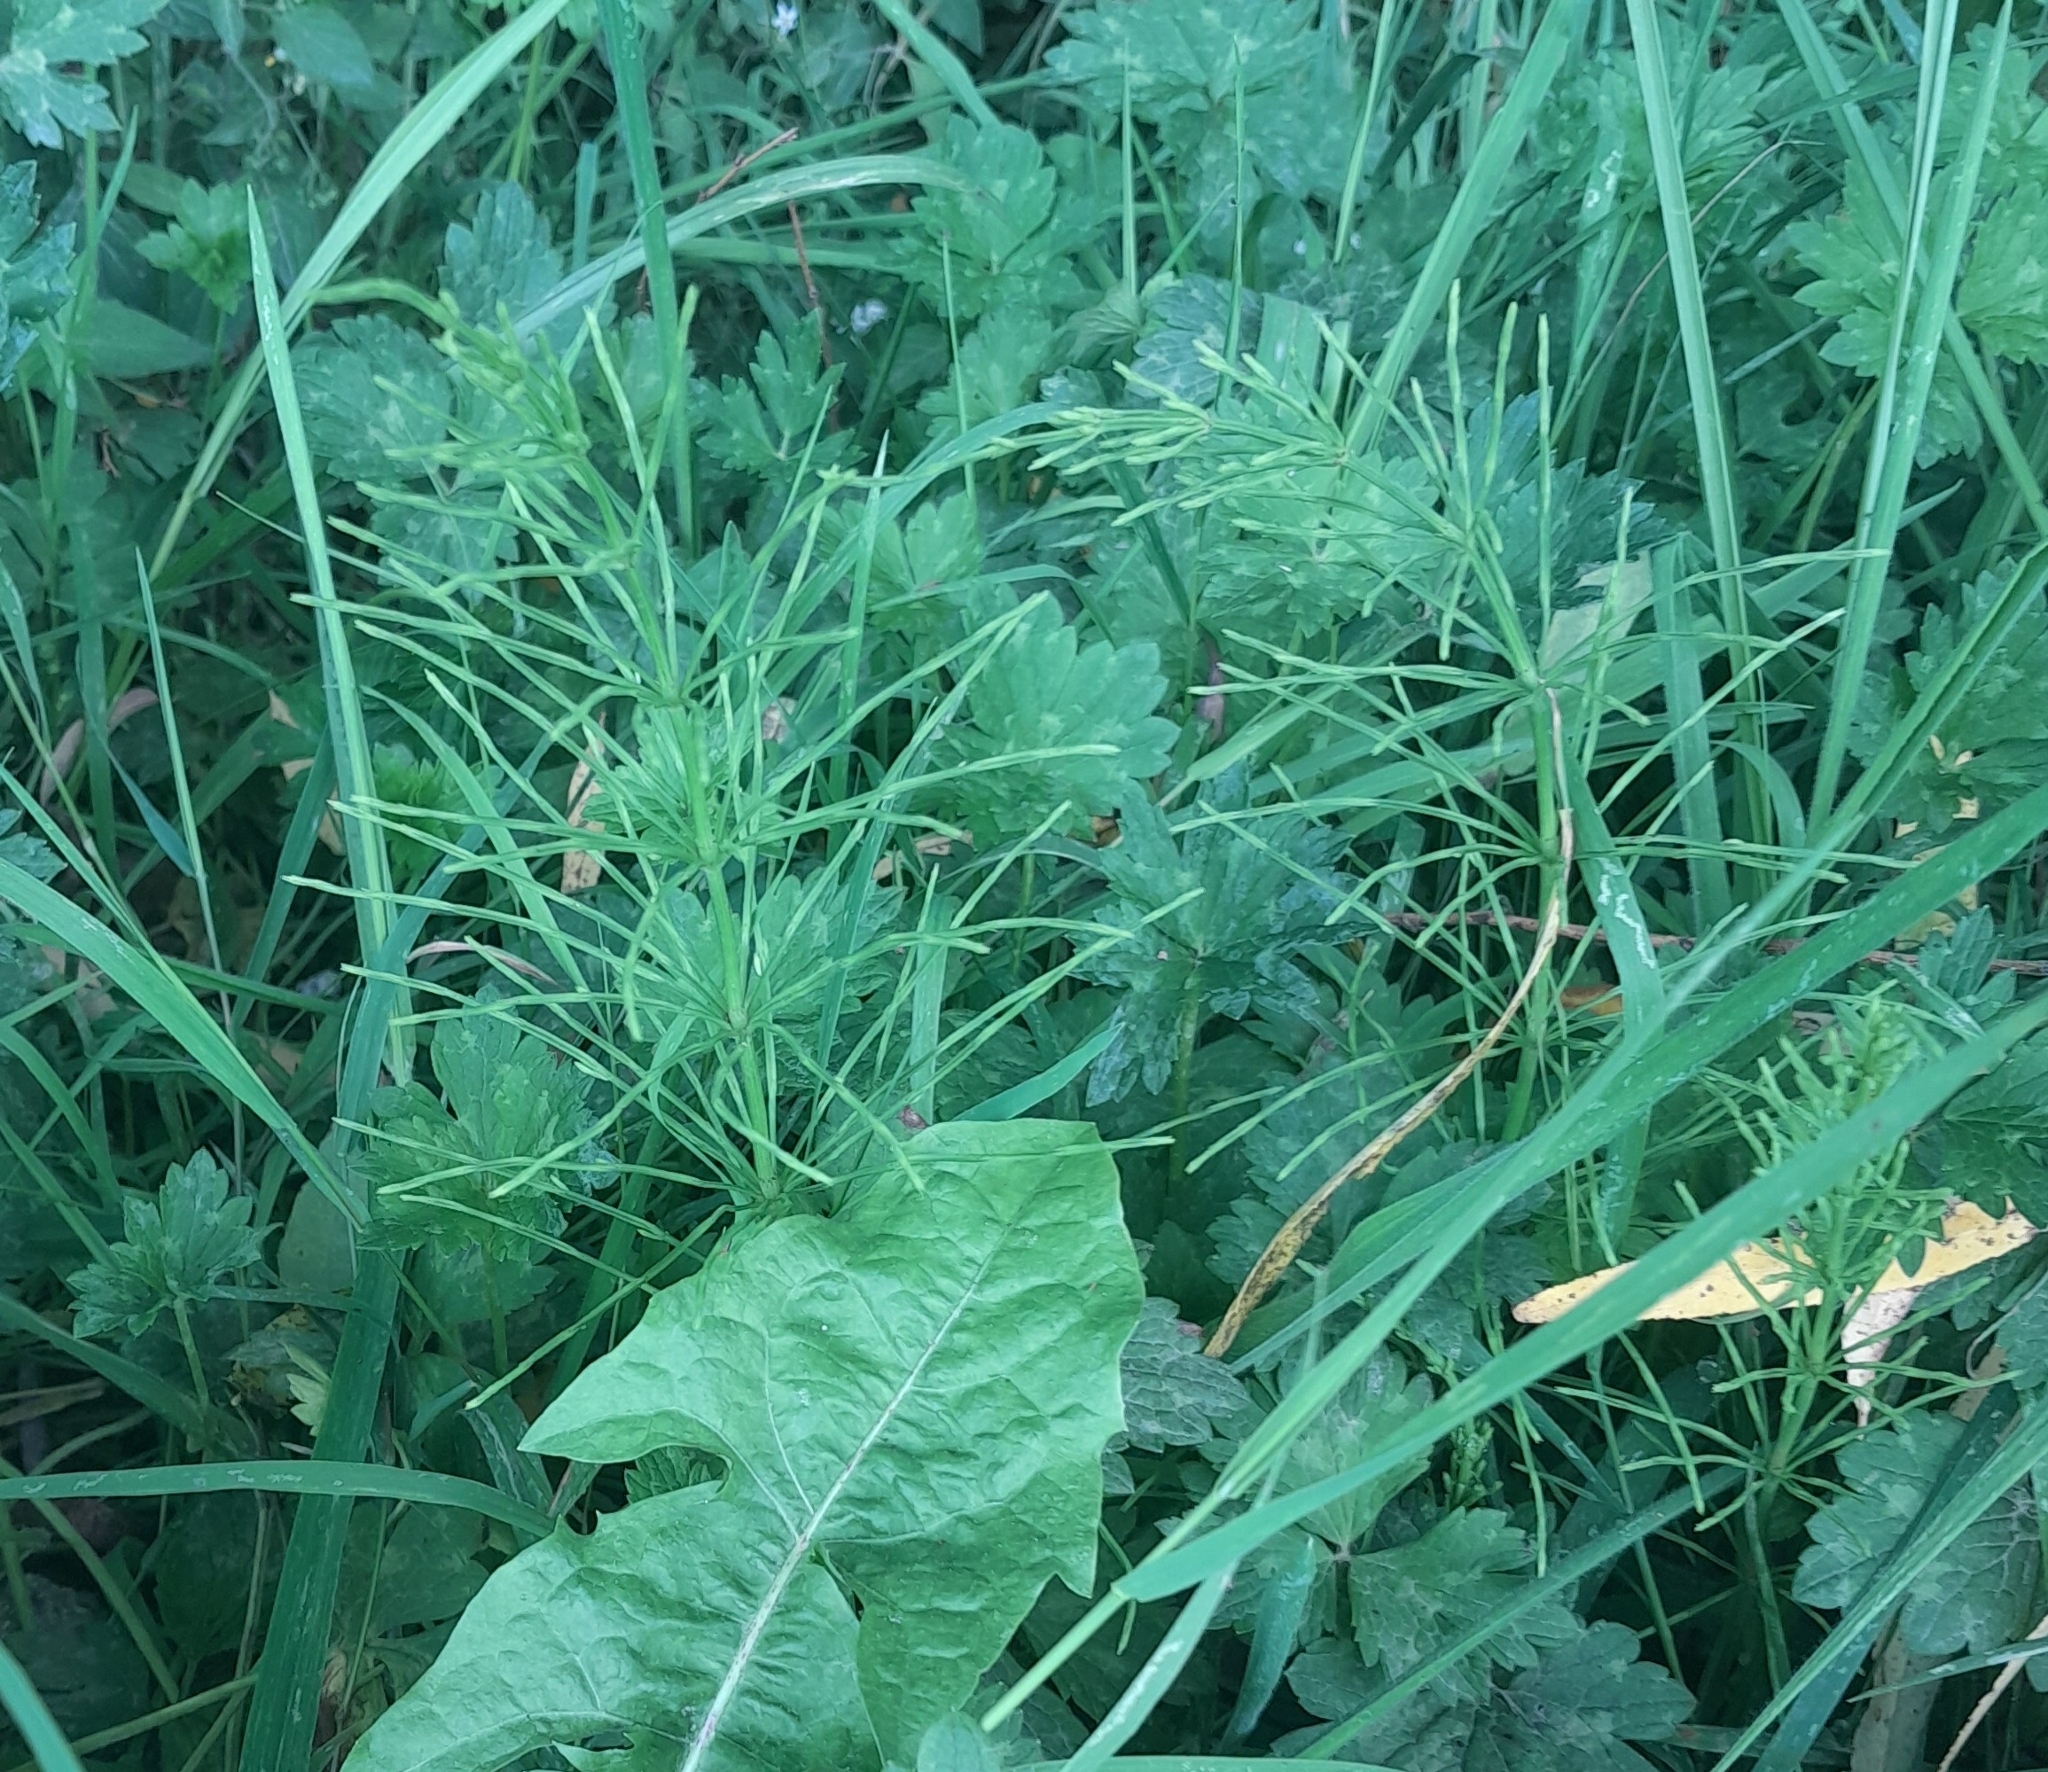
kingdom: Plantae
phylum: Tracheophyta
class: Polypodiopsida
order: Equisetales
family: Equisetaceae
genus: Equisetum
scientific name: Equisetum arvense
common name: Field horsetail
